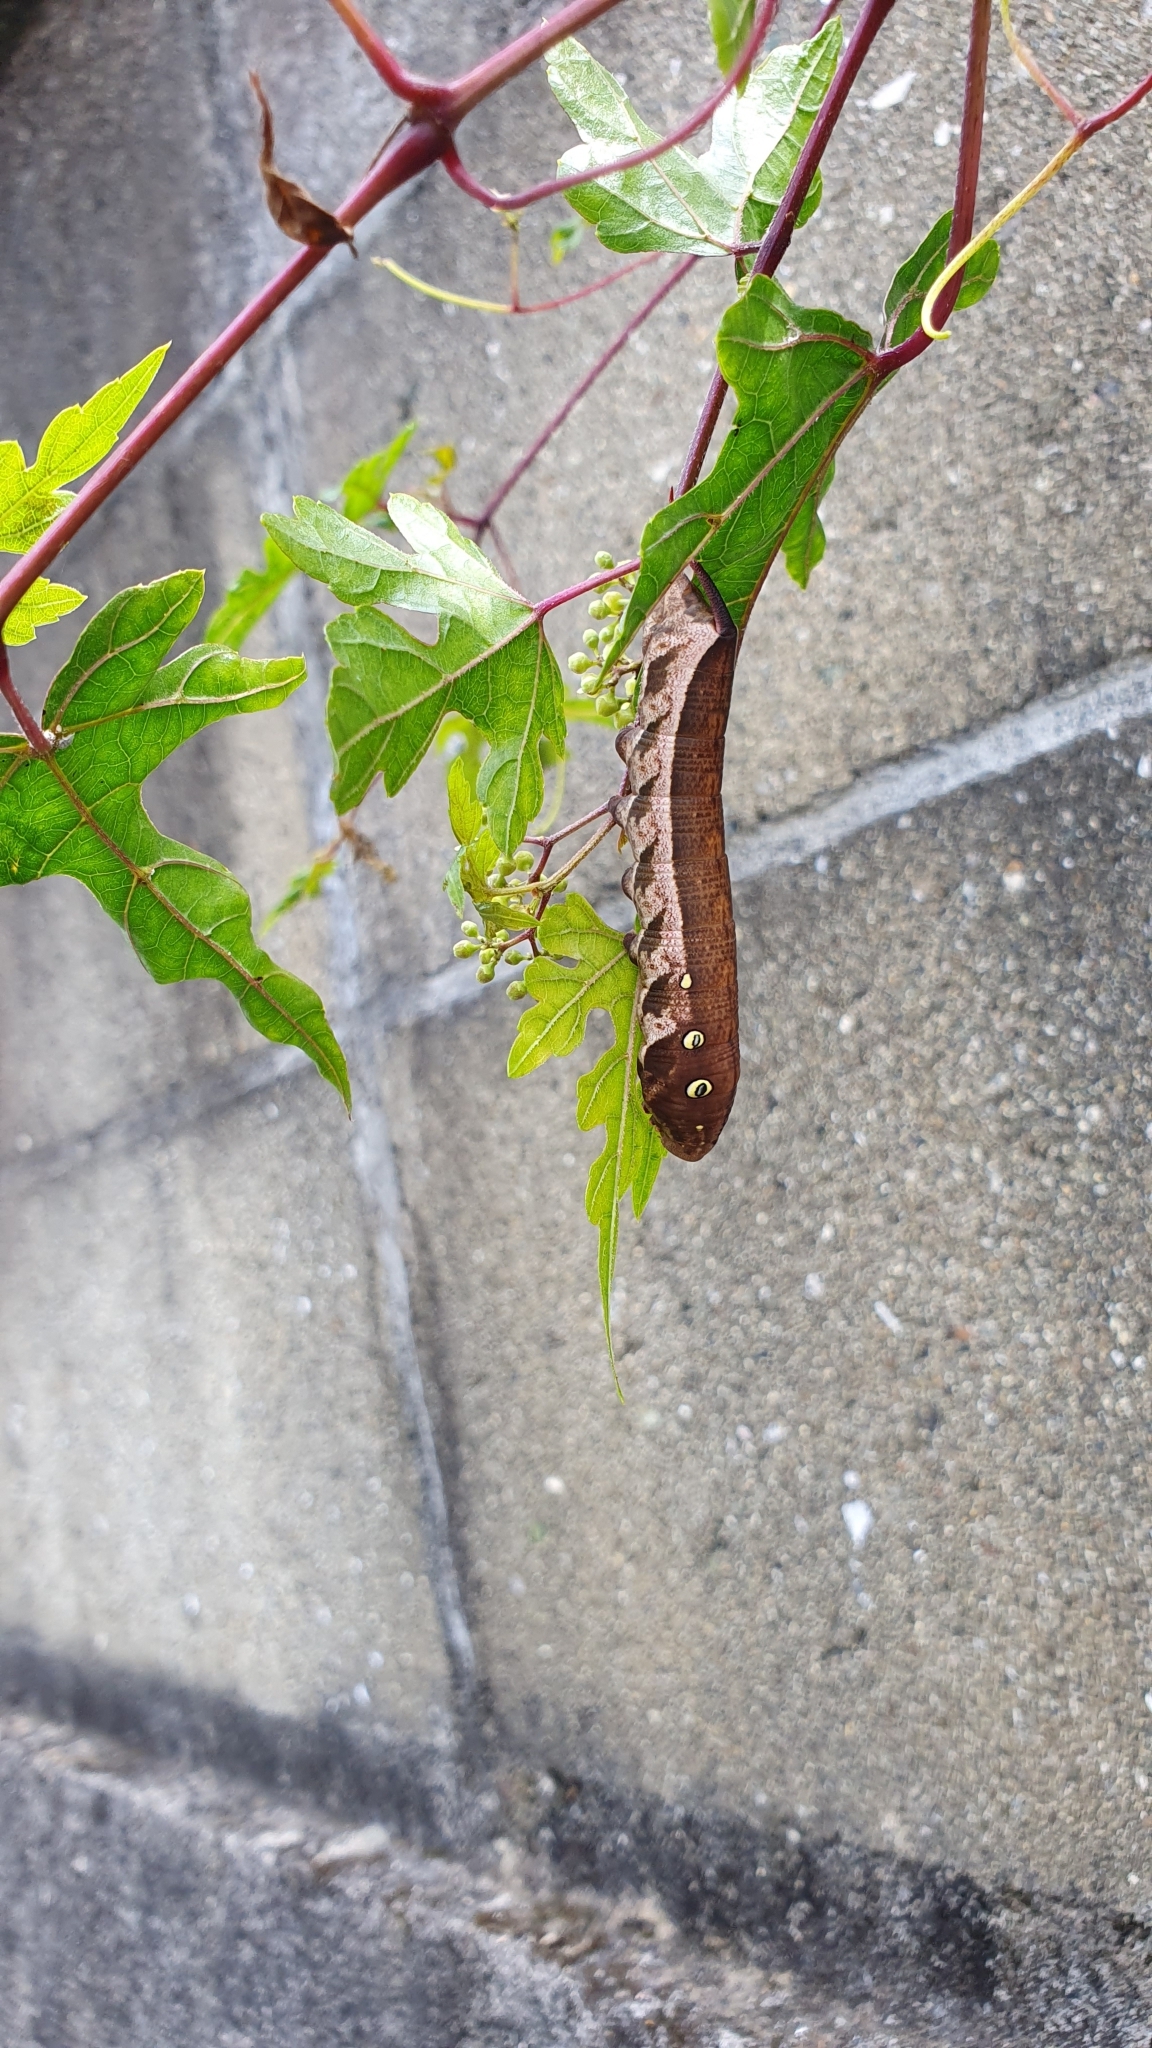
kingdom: Animalia
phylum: Arthropoda
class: Insecta
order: Lepidoptera
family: Sphingidae
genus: Theretra
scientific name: Theretra japonica
